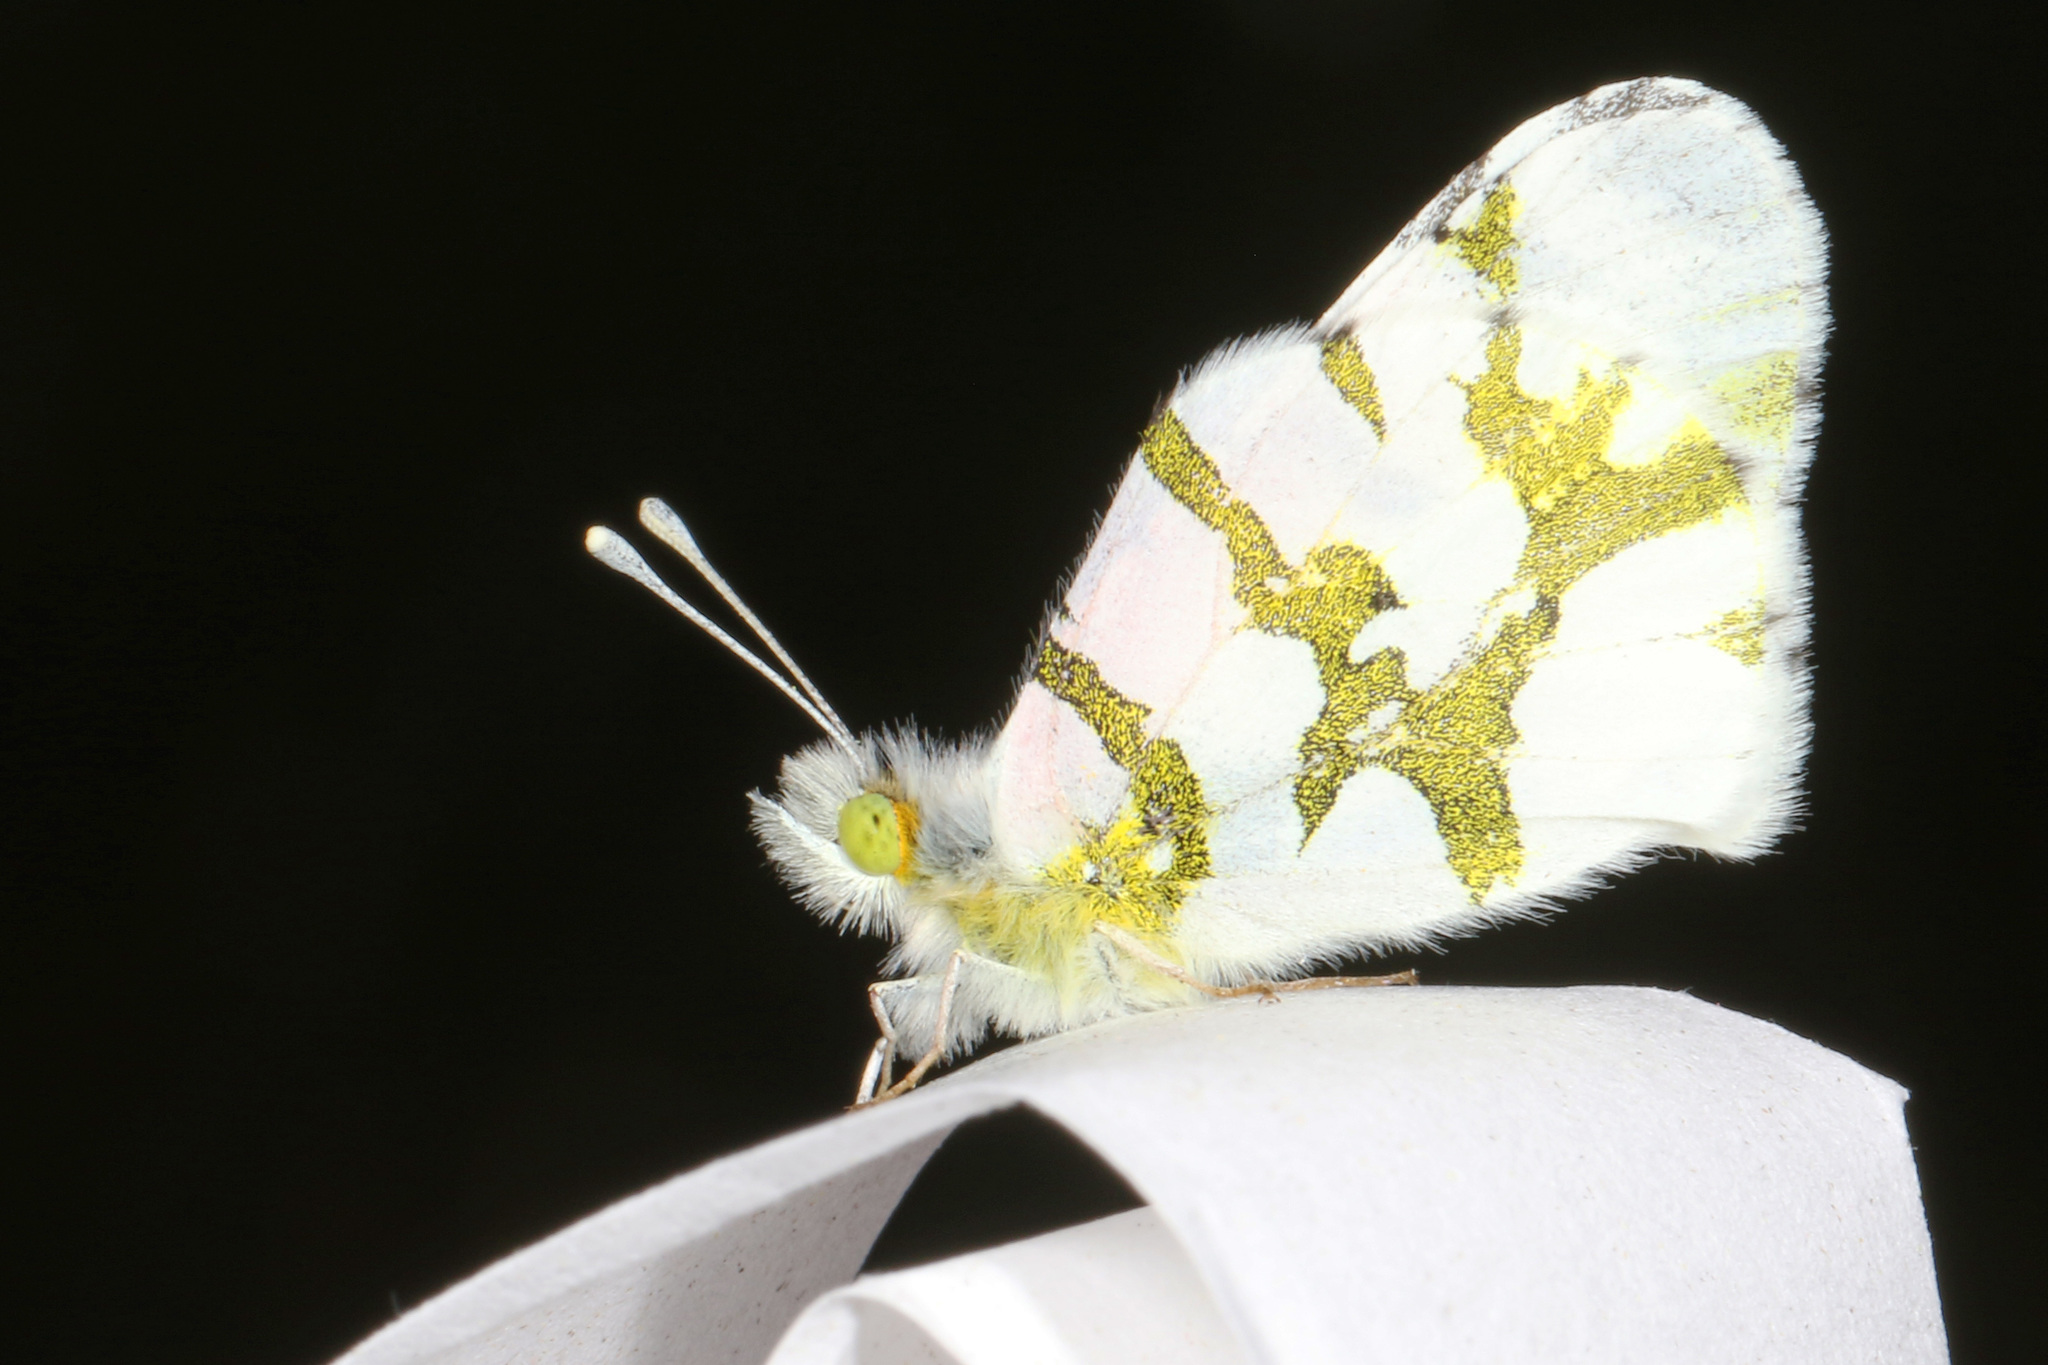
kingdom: Animalia
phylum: Arthropoda
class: Insecta
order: Lepidoptera
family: Pieridae
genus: Euchloe
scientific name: Euchloe olympia
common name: Olympia
